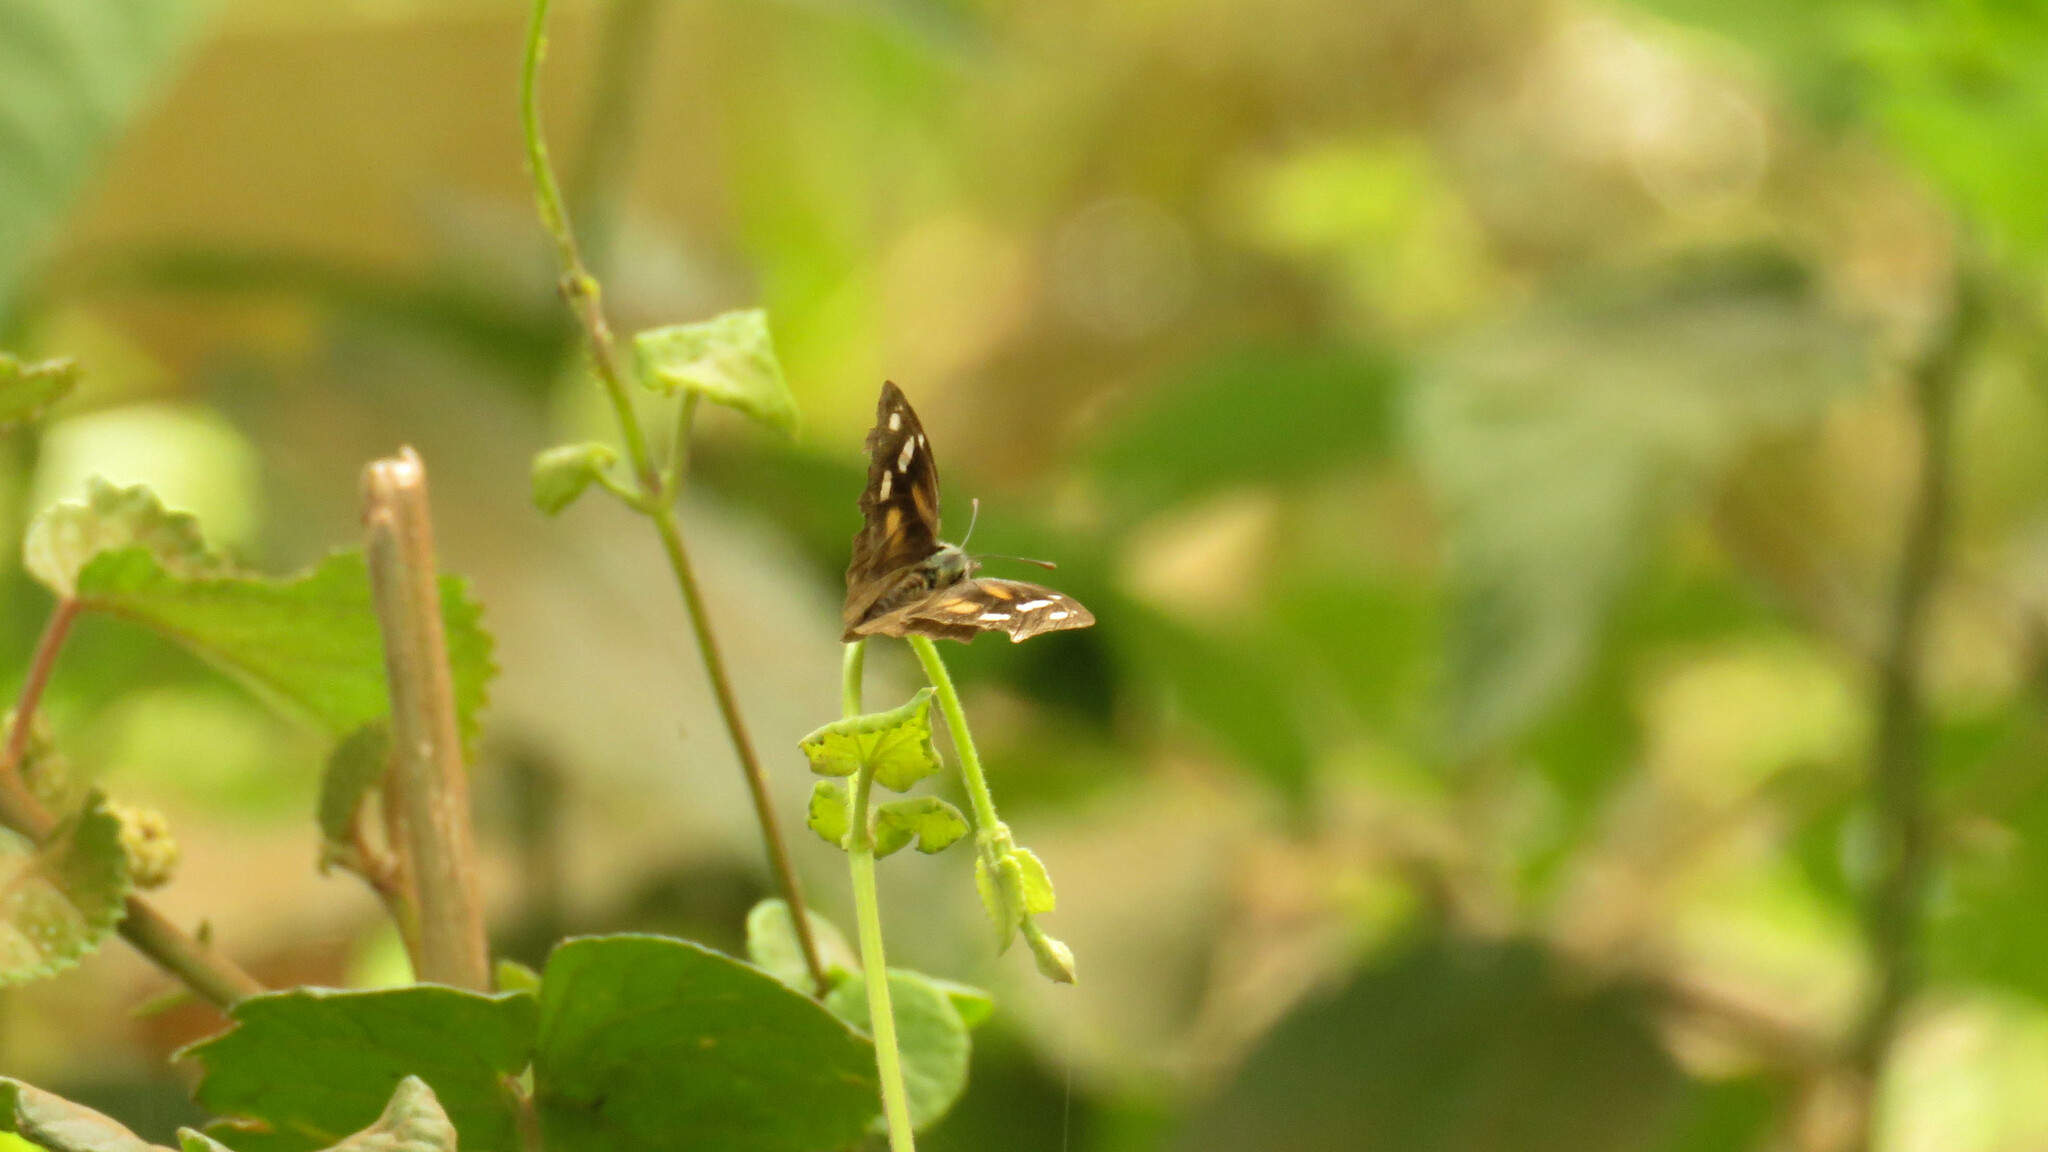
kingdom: Animalia
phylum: Arthropoda
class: Insecta
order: Lepidoptera
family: Nymphalidae
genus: Libytheana
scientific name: Libytheana carinenta
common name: American snout
